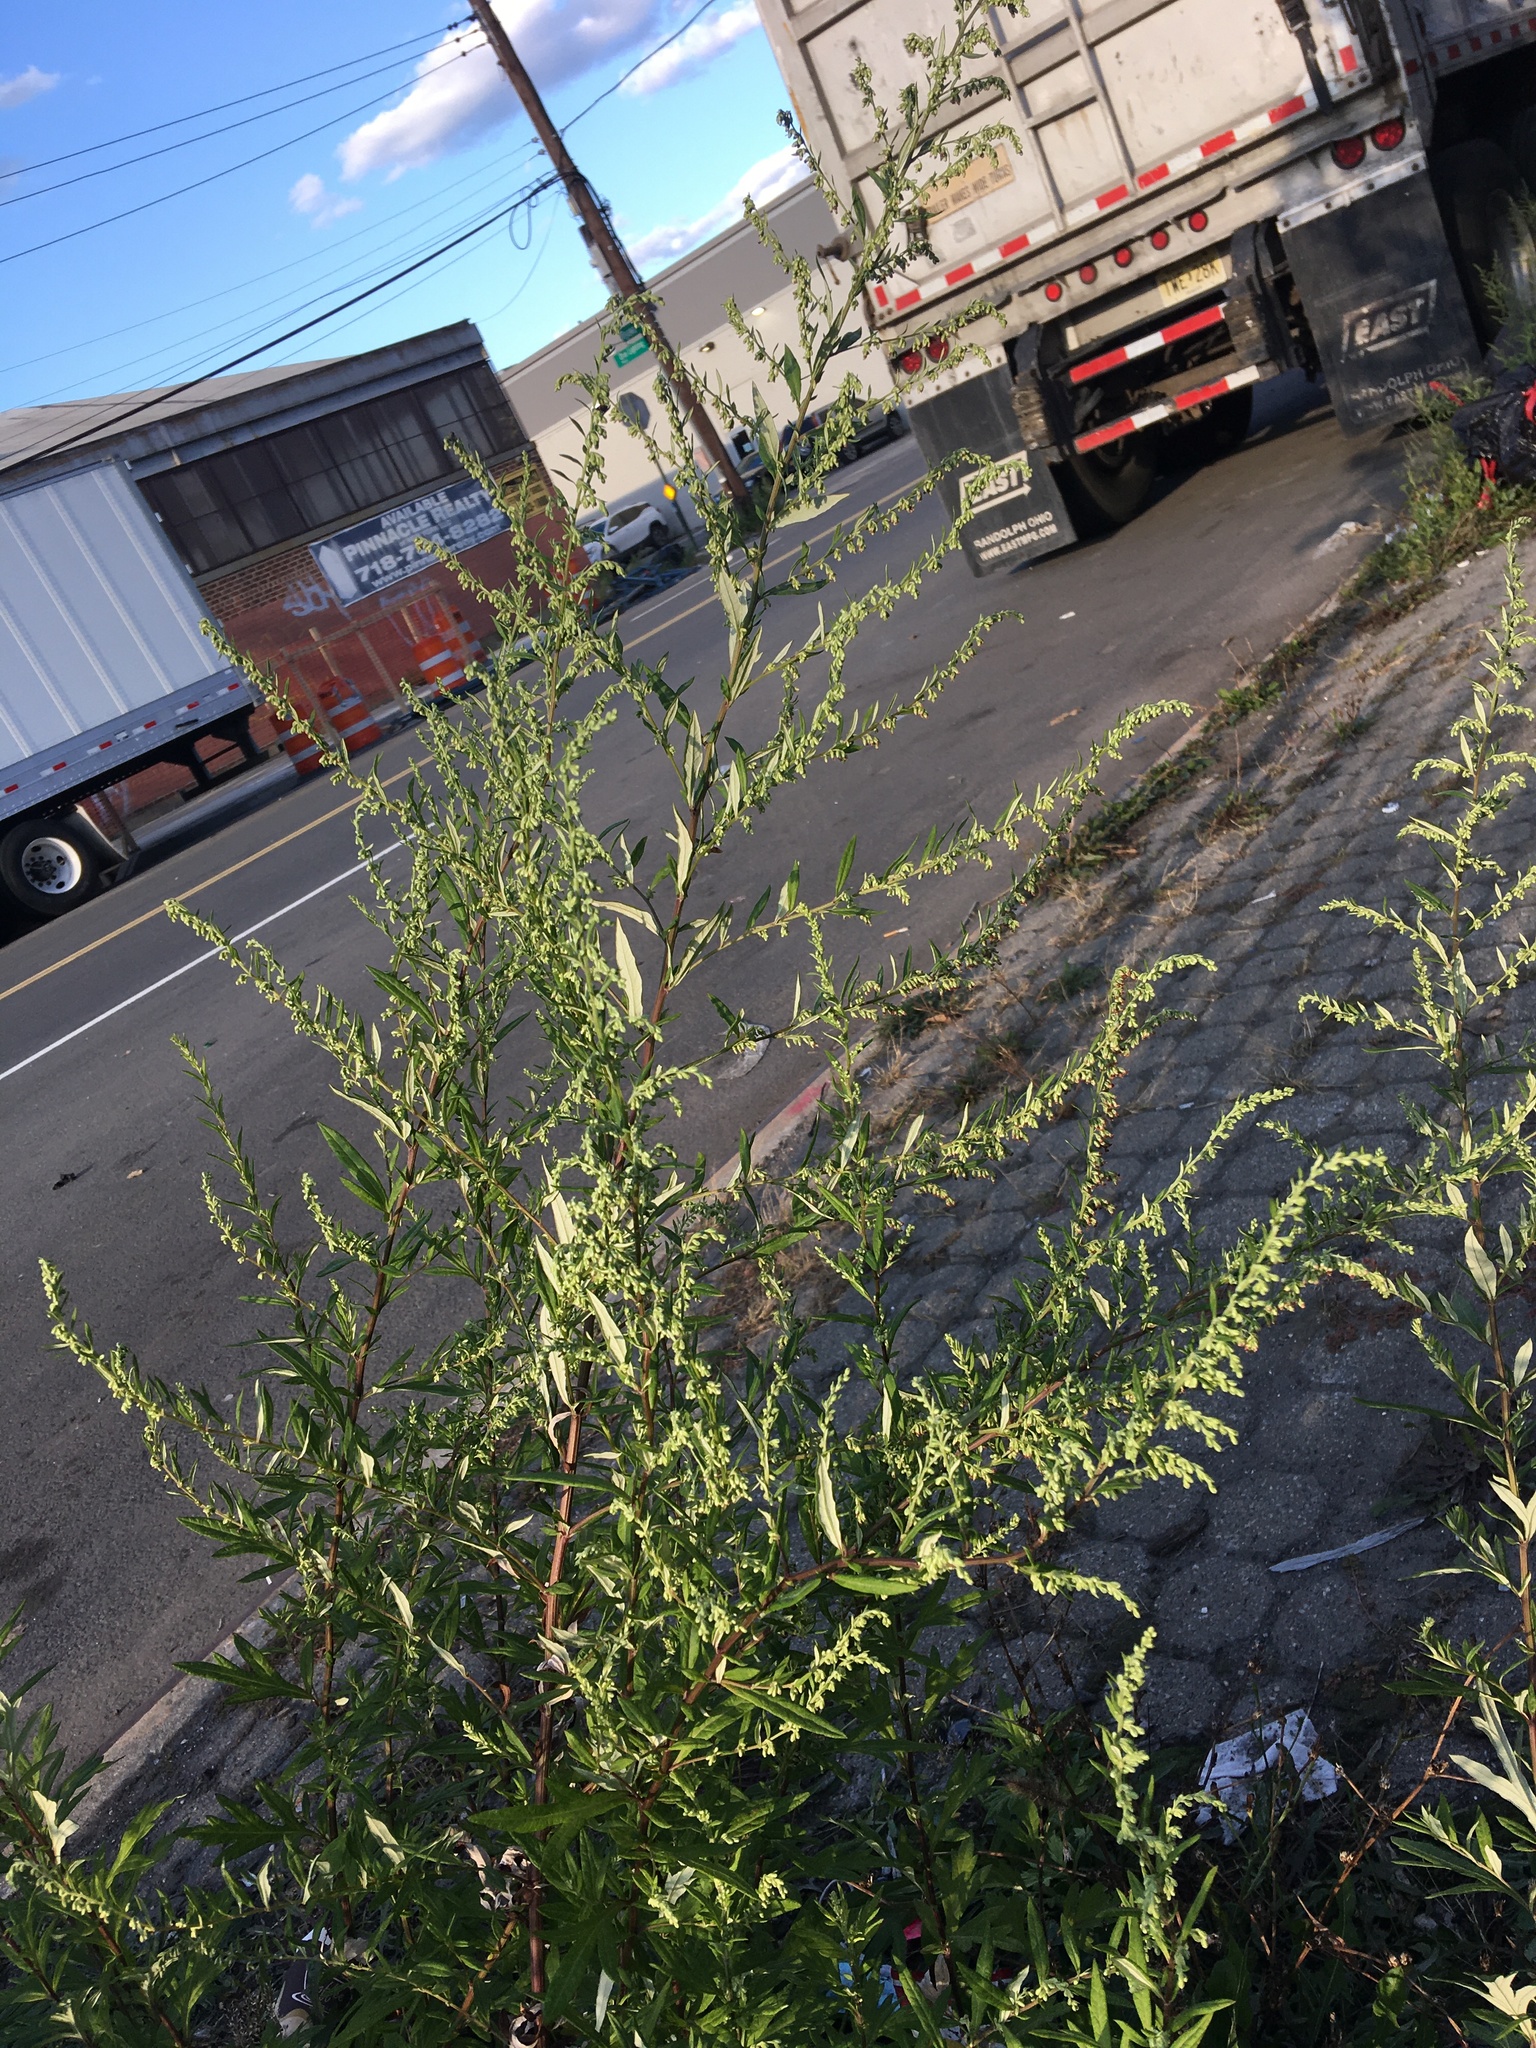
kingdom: Plantae
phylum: Tracheophyta
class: Magnoliopsida
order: Asterales
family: Asteraceae
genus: Artemisia
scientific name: Artemisia vulgaris
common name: Mugwort
